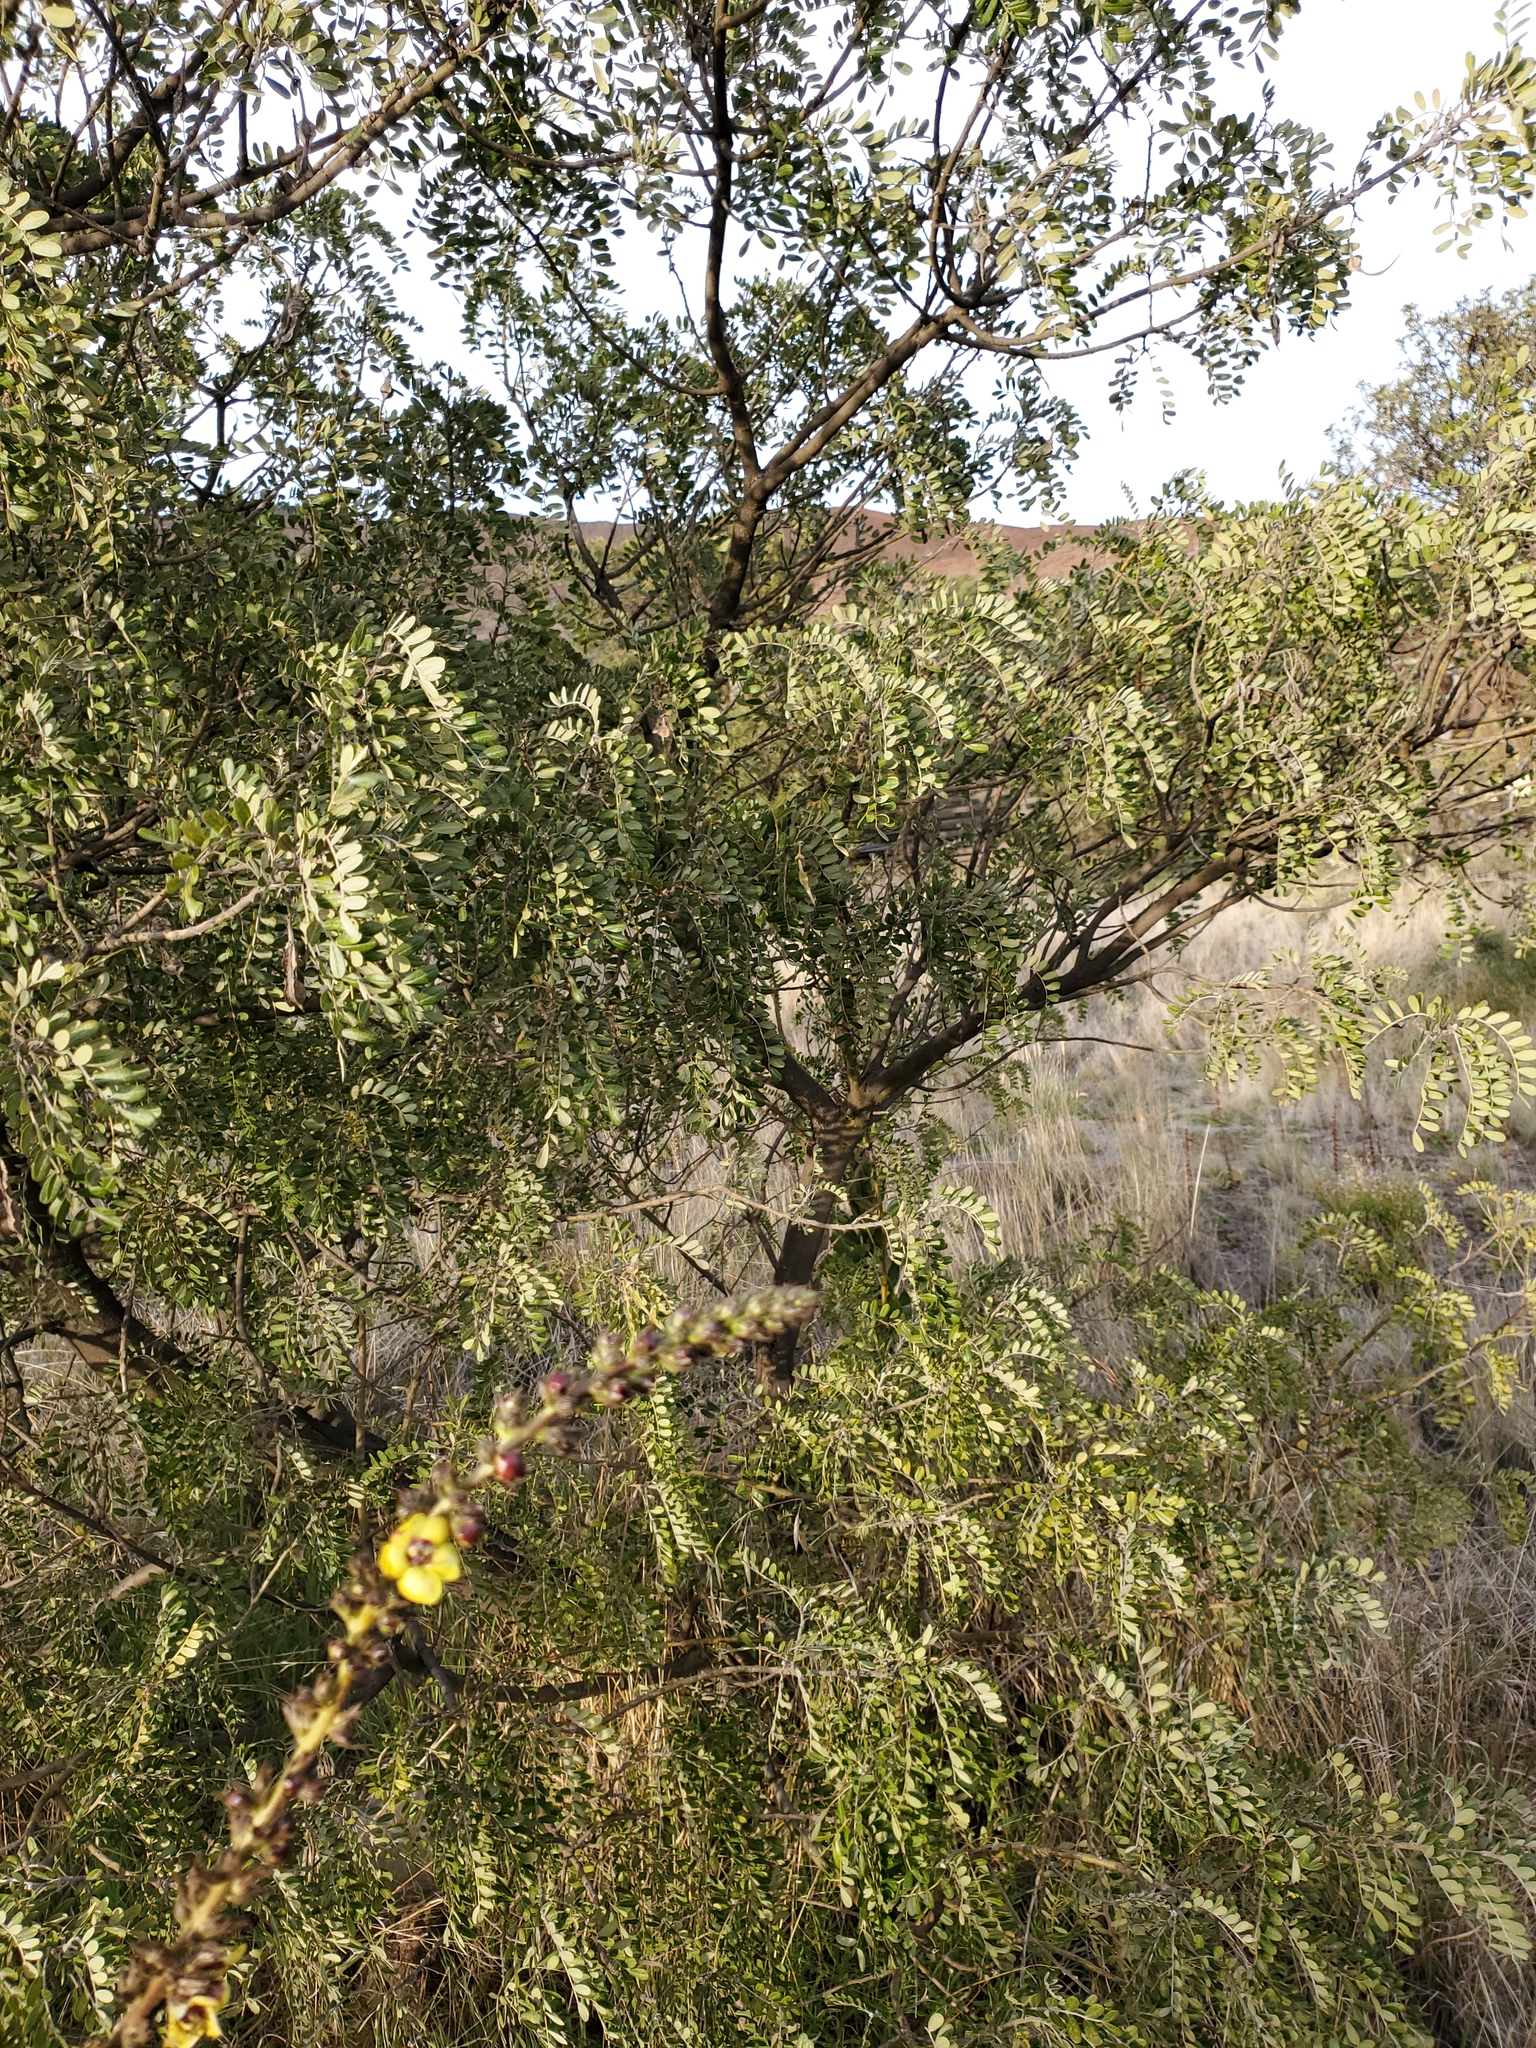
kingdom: Plantae
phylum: Tracheophyta
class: Magnoliopsida
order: Fabales
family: Fabaceae
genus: Sophora
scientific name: Sophora chrysophylla
